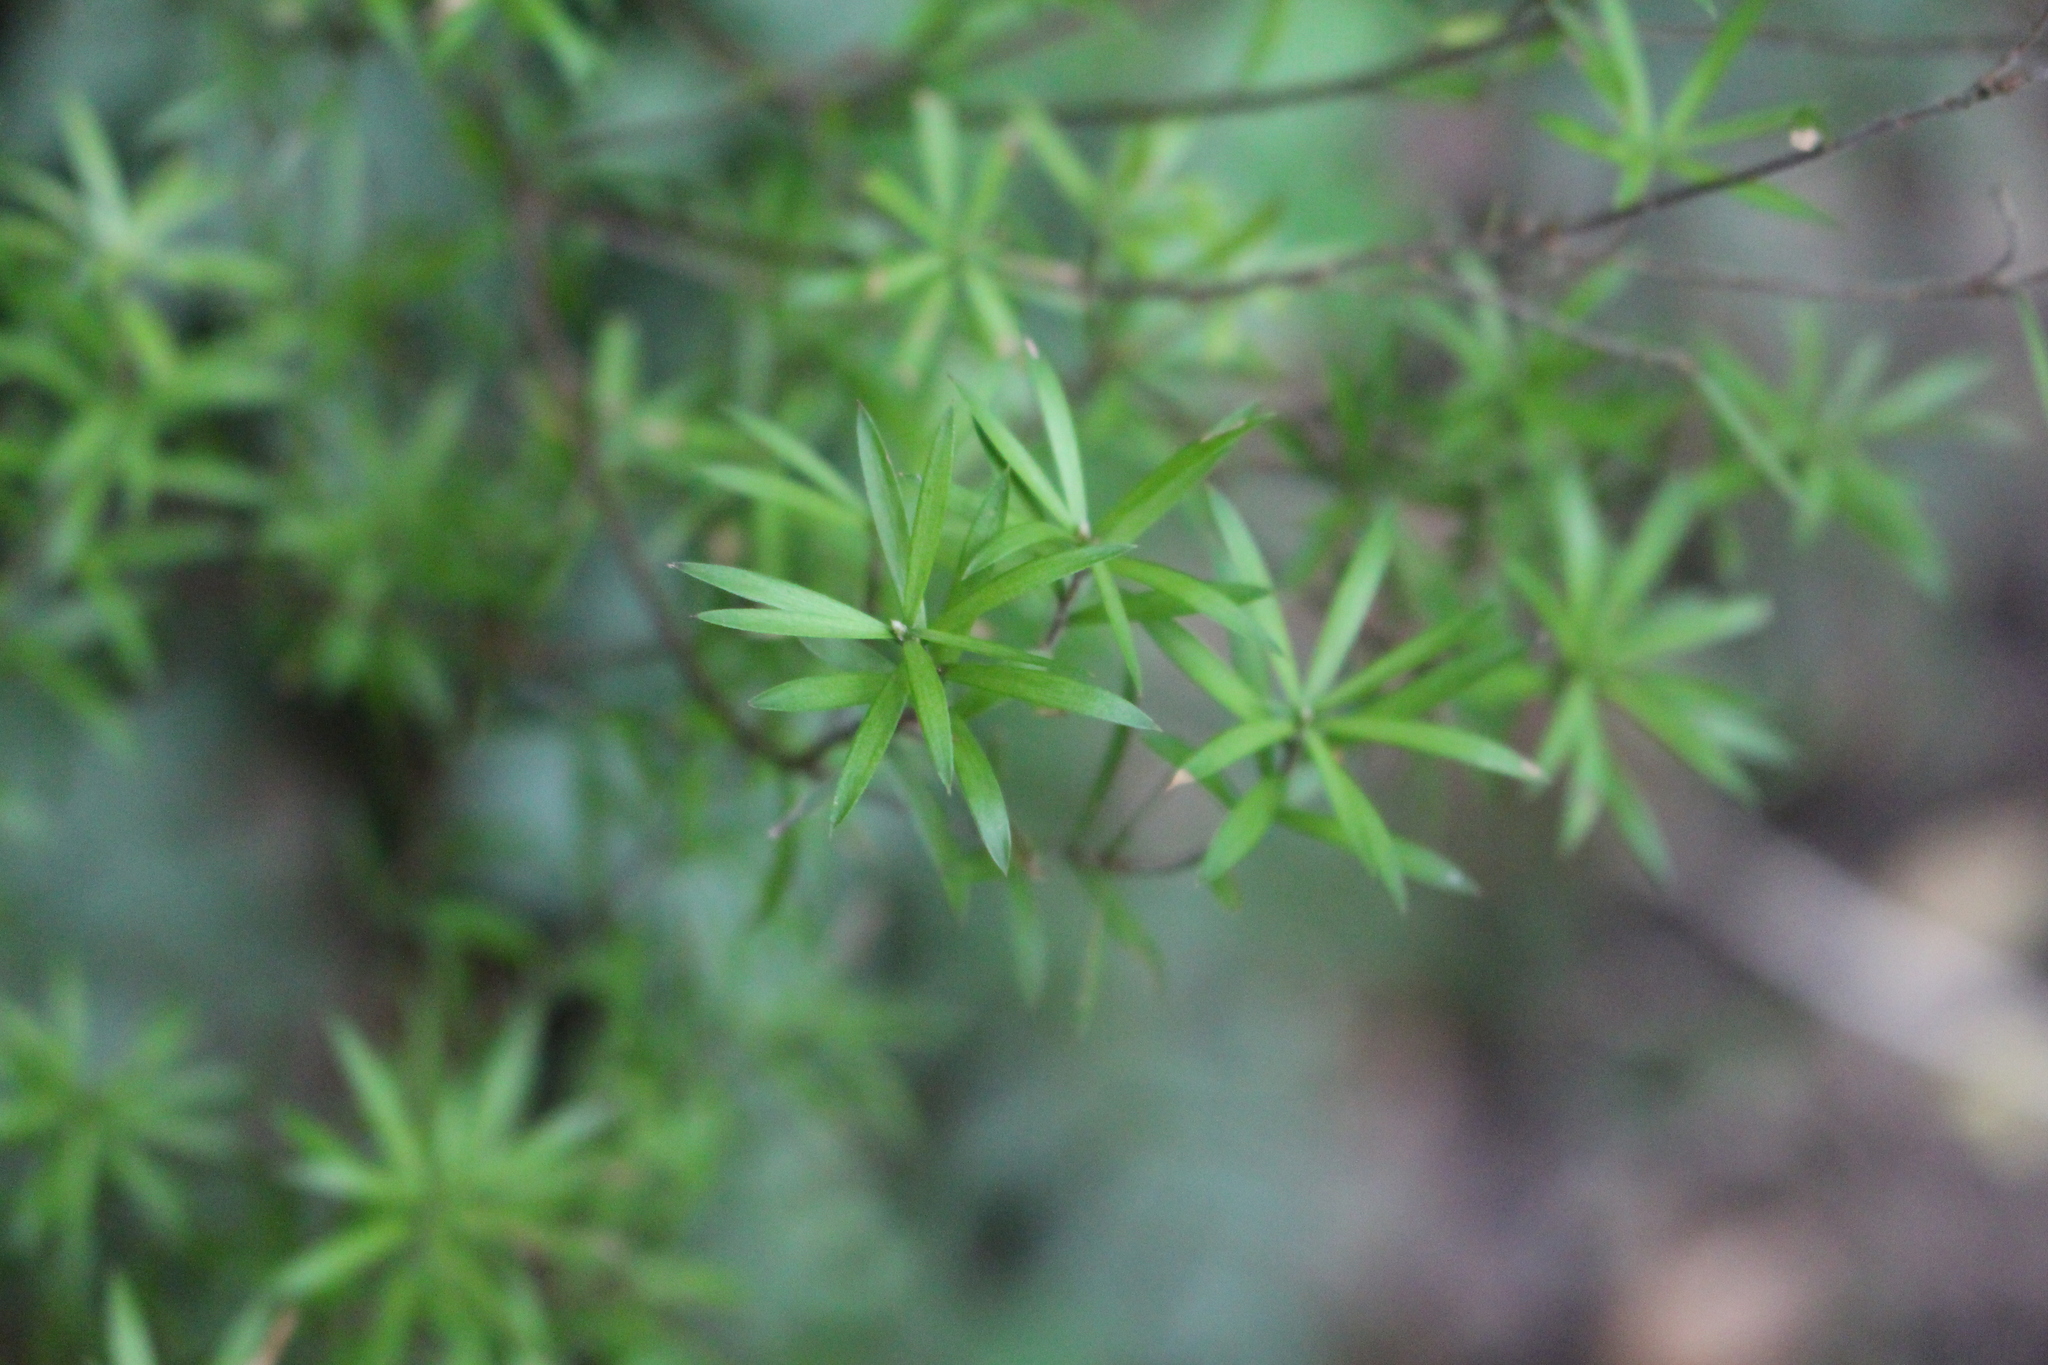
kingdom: Plantae
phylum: Tracheophyta
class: Magnoliopsida
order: Ericales
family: Ericaceae
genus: Leucopogon
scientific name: Leucopogon fasciculatus
